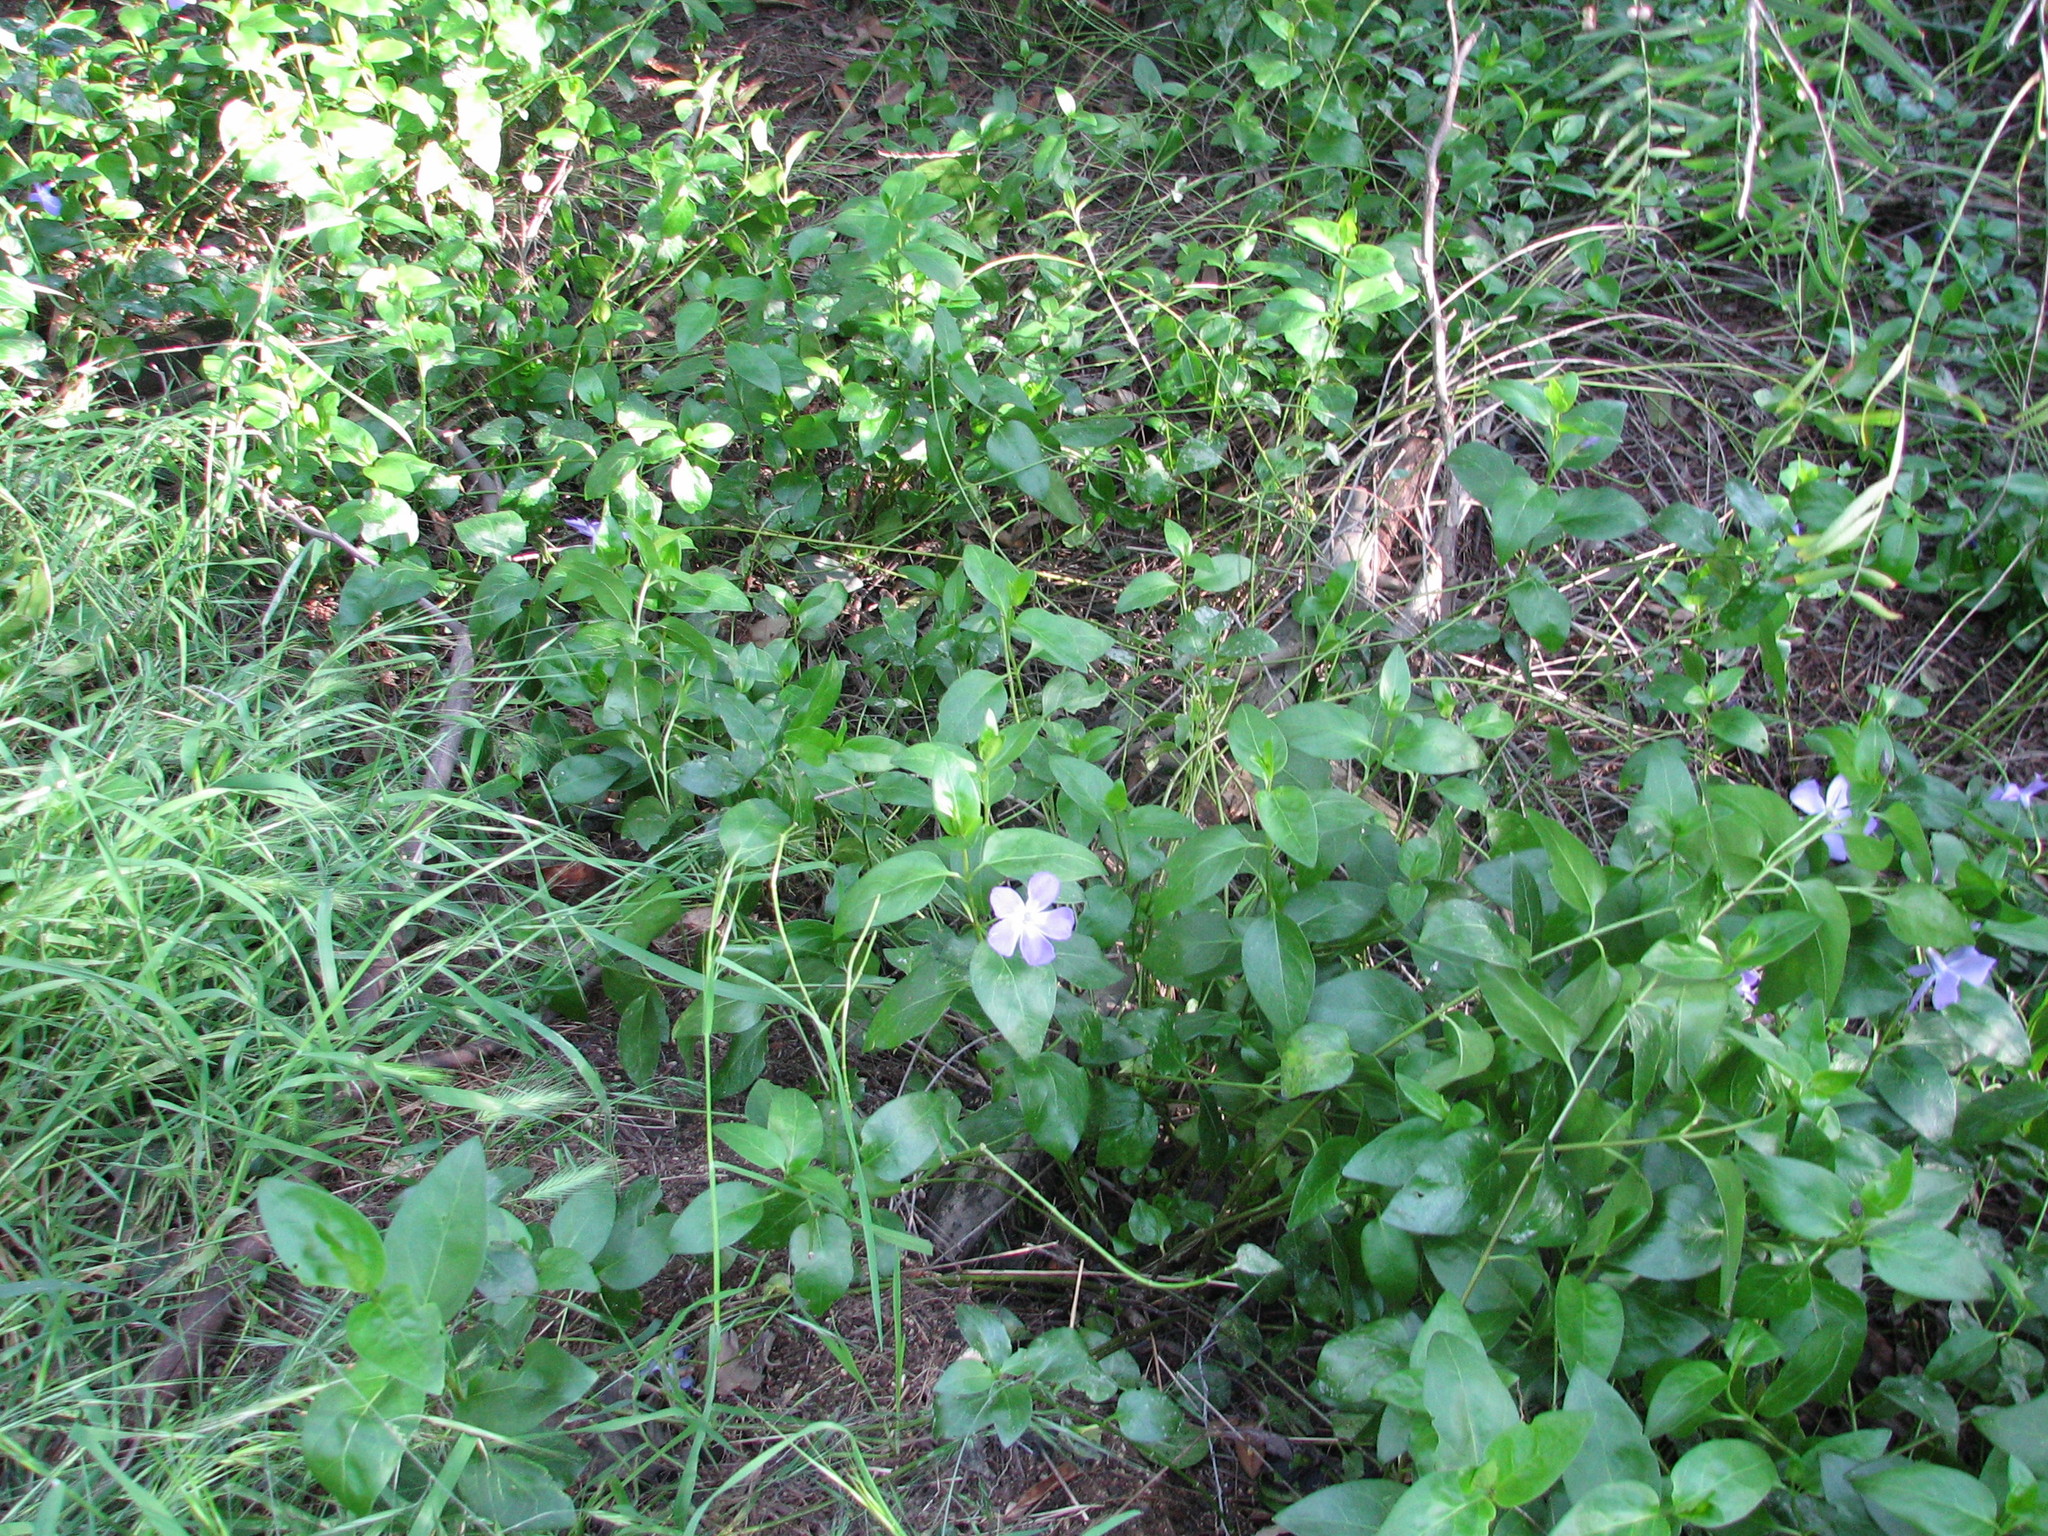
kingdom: Plantae
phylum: Tracheophyta
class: Magnoliopsida
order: Gentianales
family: Apocynaceae
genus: Vinca
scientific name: Vinca major
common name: Greater periwinkle
